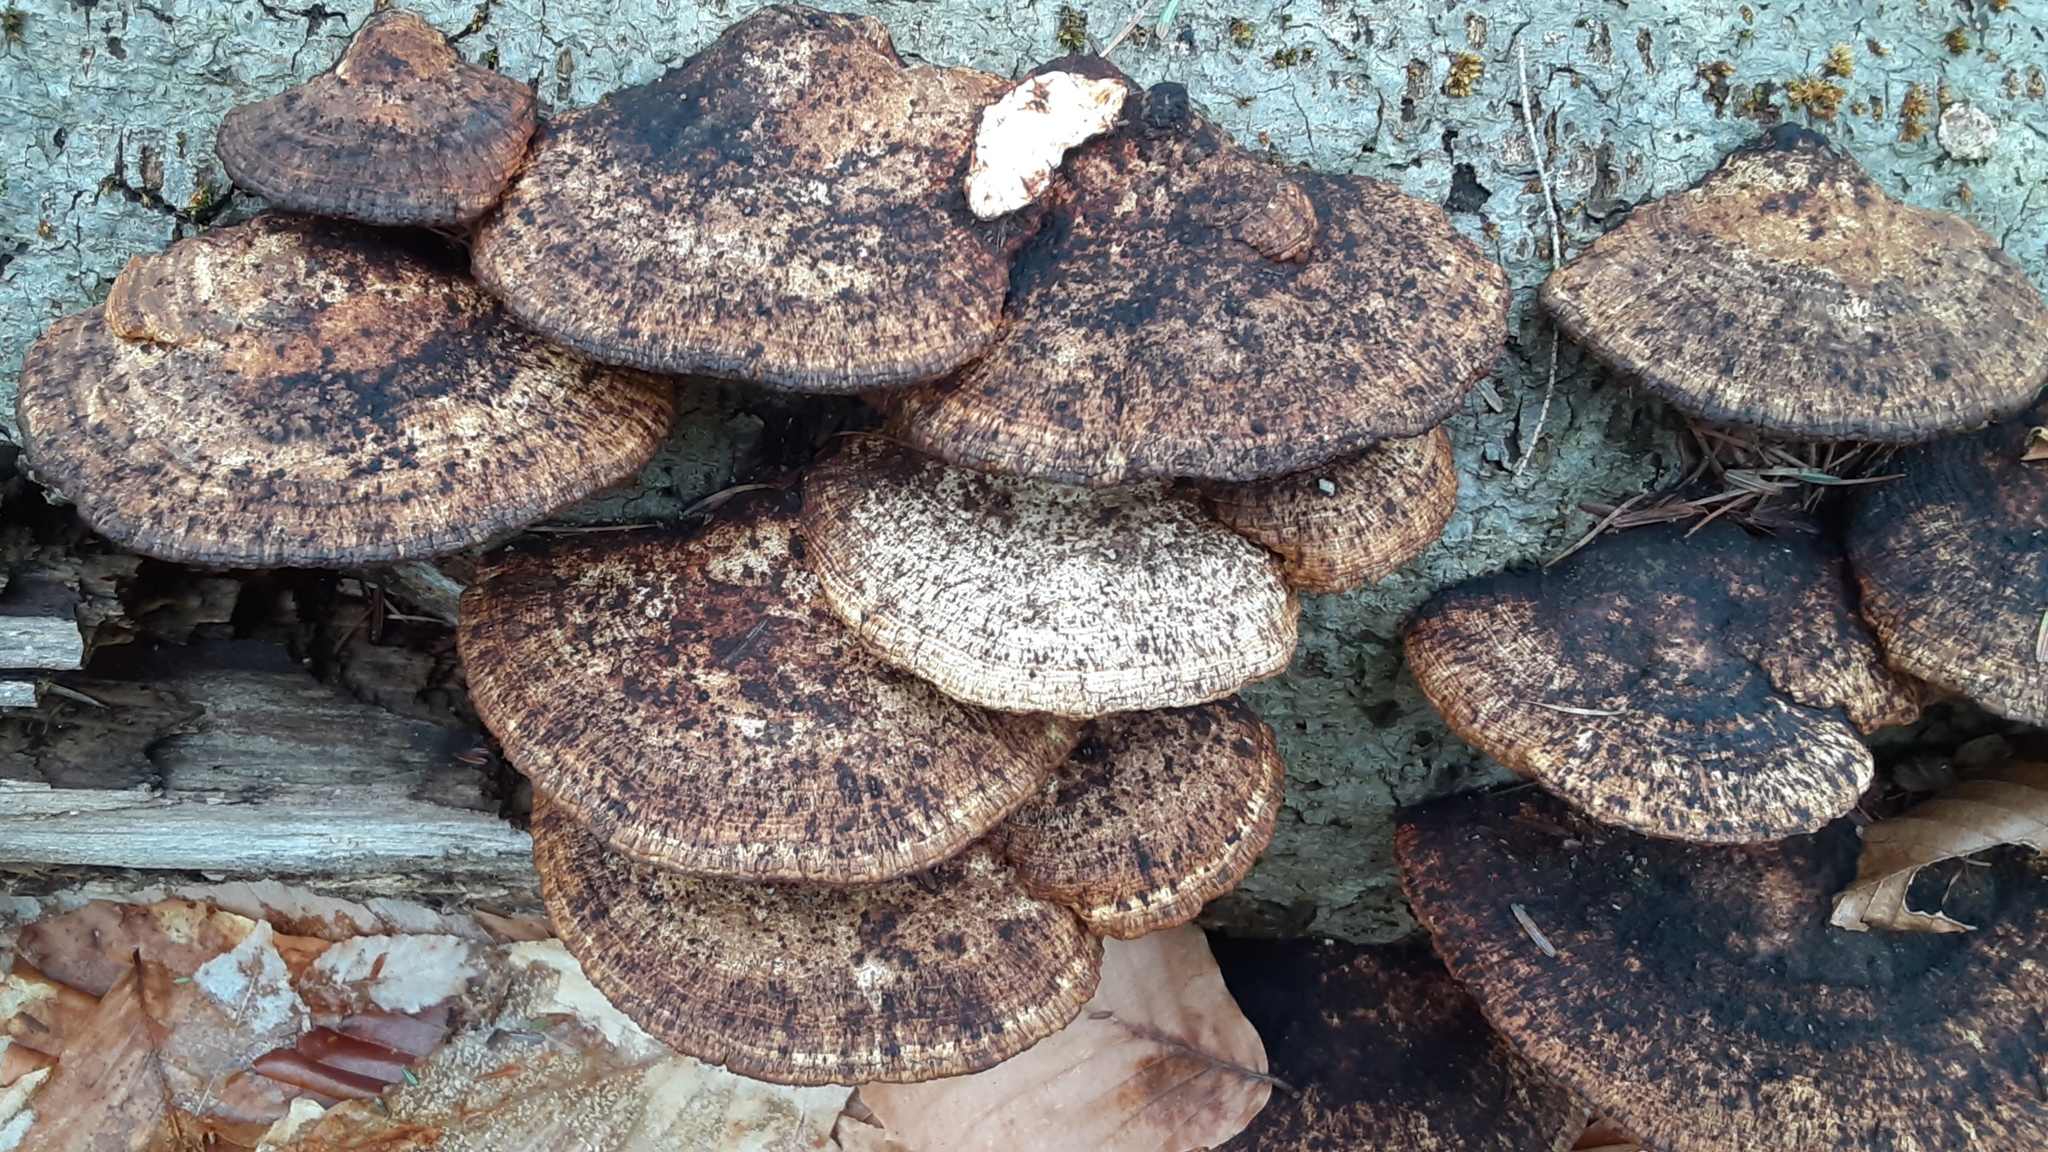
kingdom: Fungi
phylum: Basidiomycota
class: Agaricomycetes
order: Polyporales
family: Polyporaceae
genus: Daedaleopsis
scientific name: Daedaleopsis confragosa
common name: Blushing bracket
